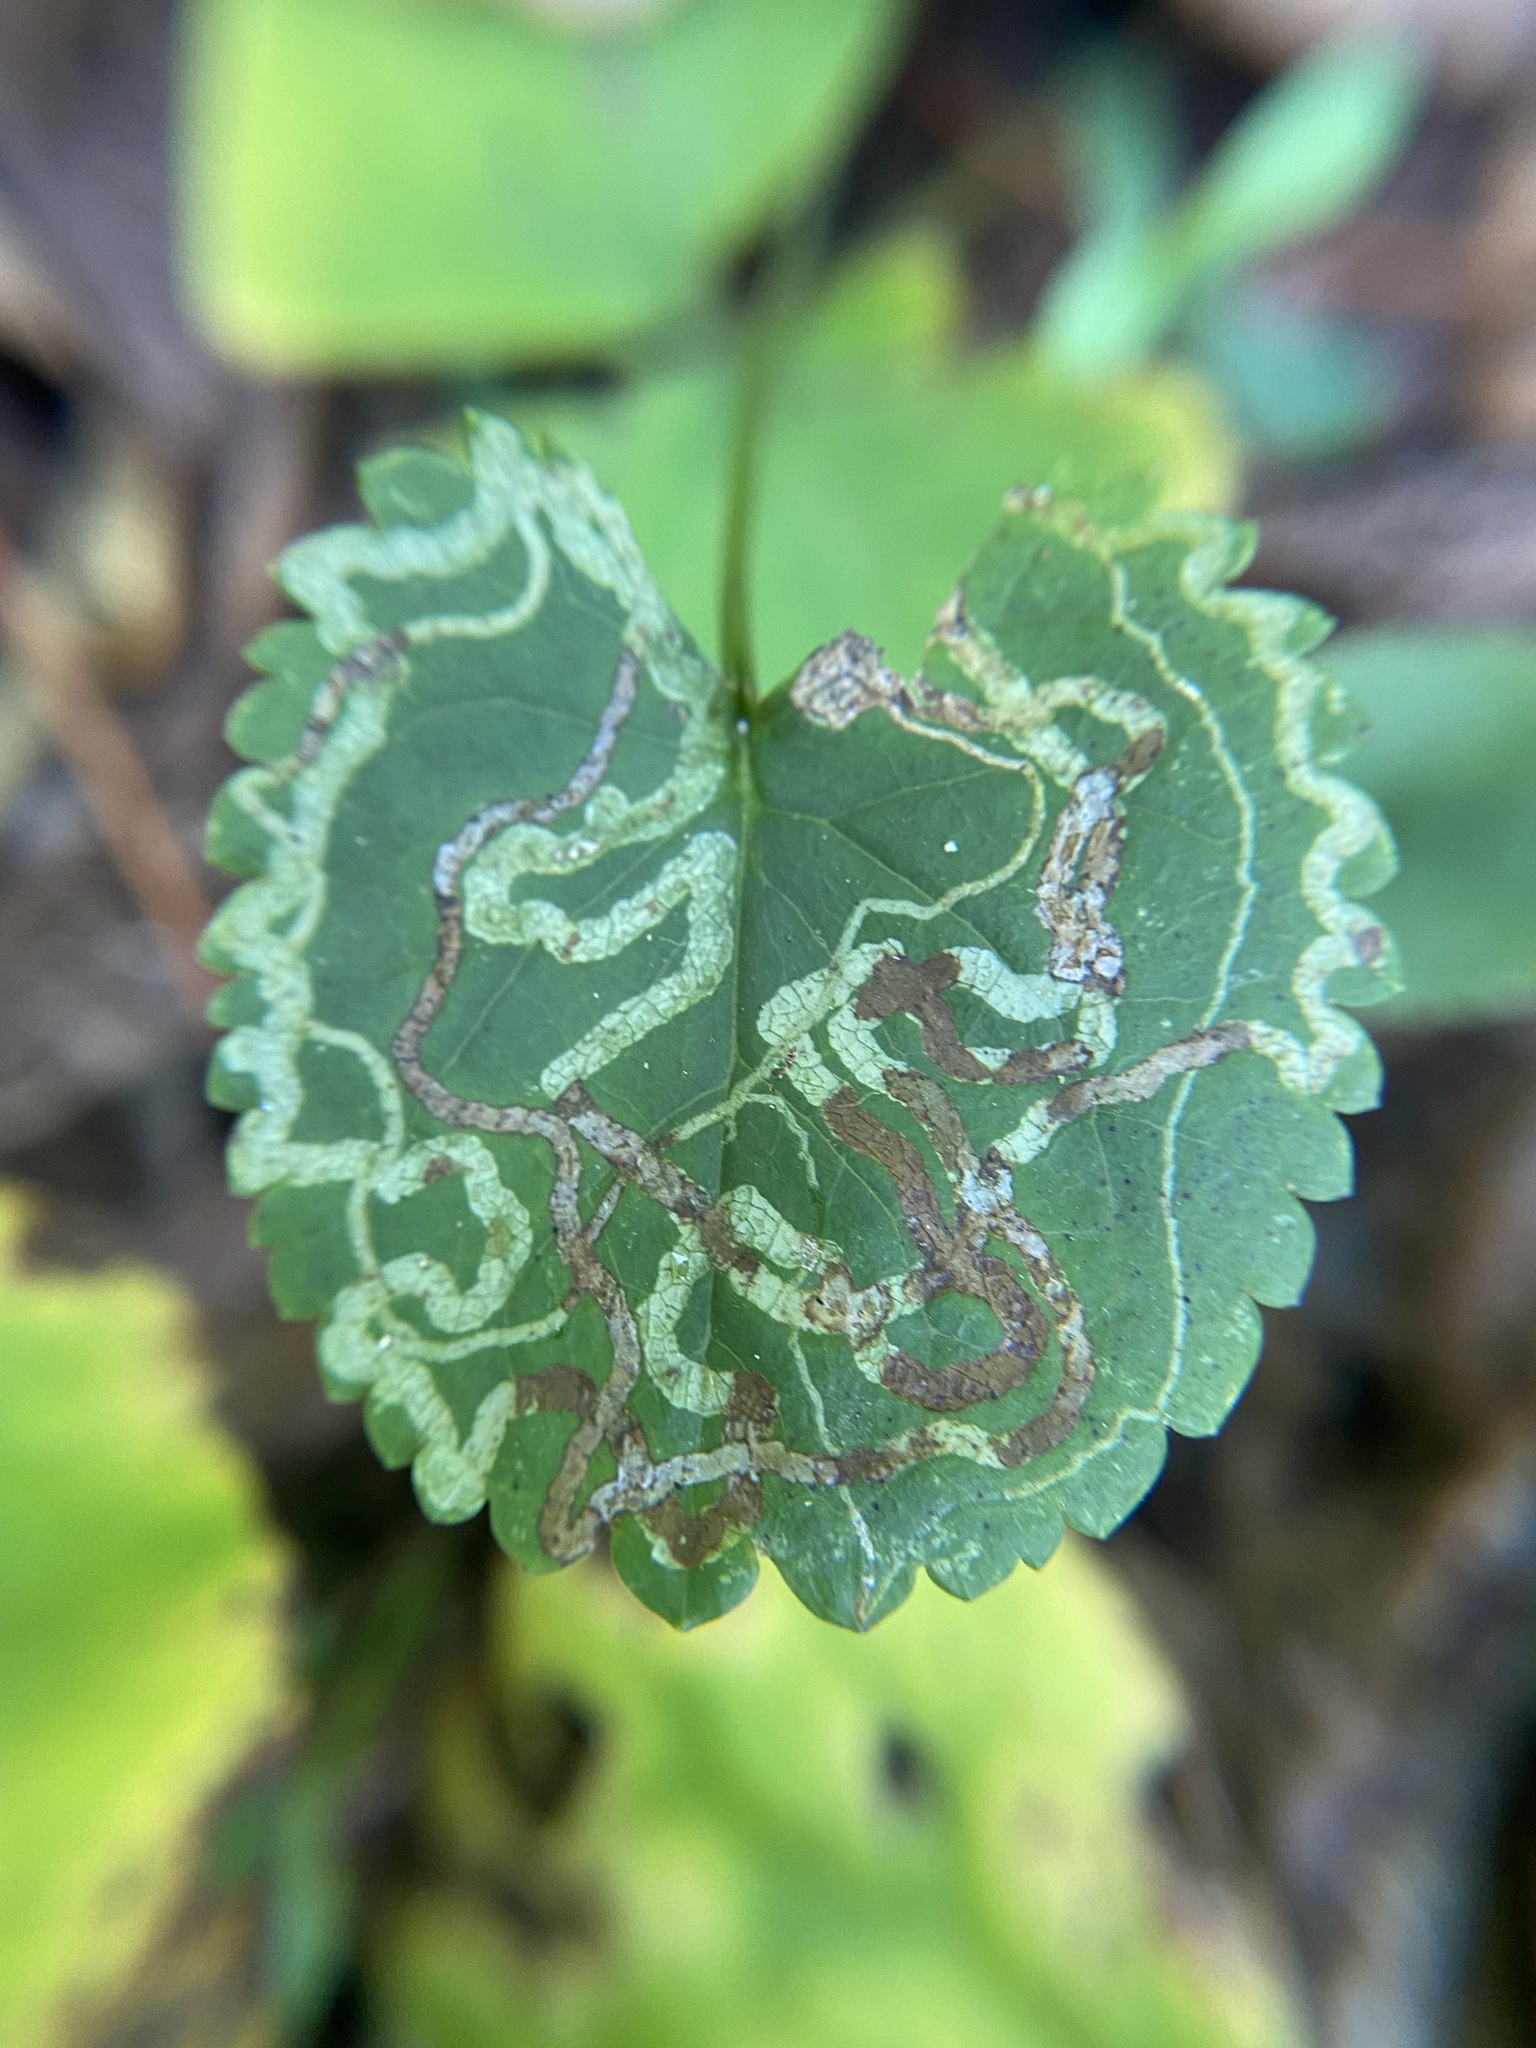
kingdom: Animalia
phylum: Arthropoda
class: Insecta
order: Lepidoptera
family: Gracillariidae
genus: Phyllocnistis
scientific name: Phyllocnistis insignis
